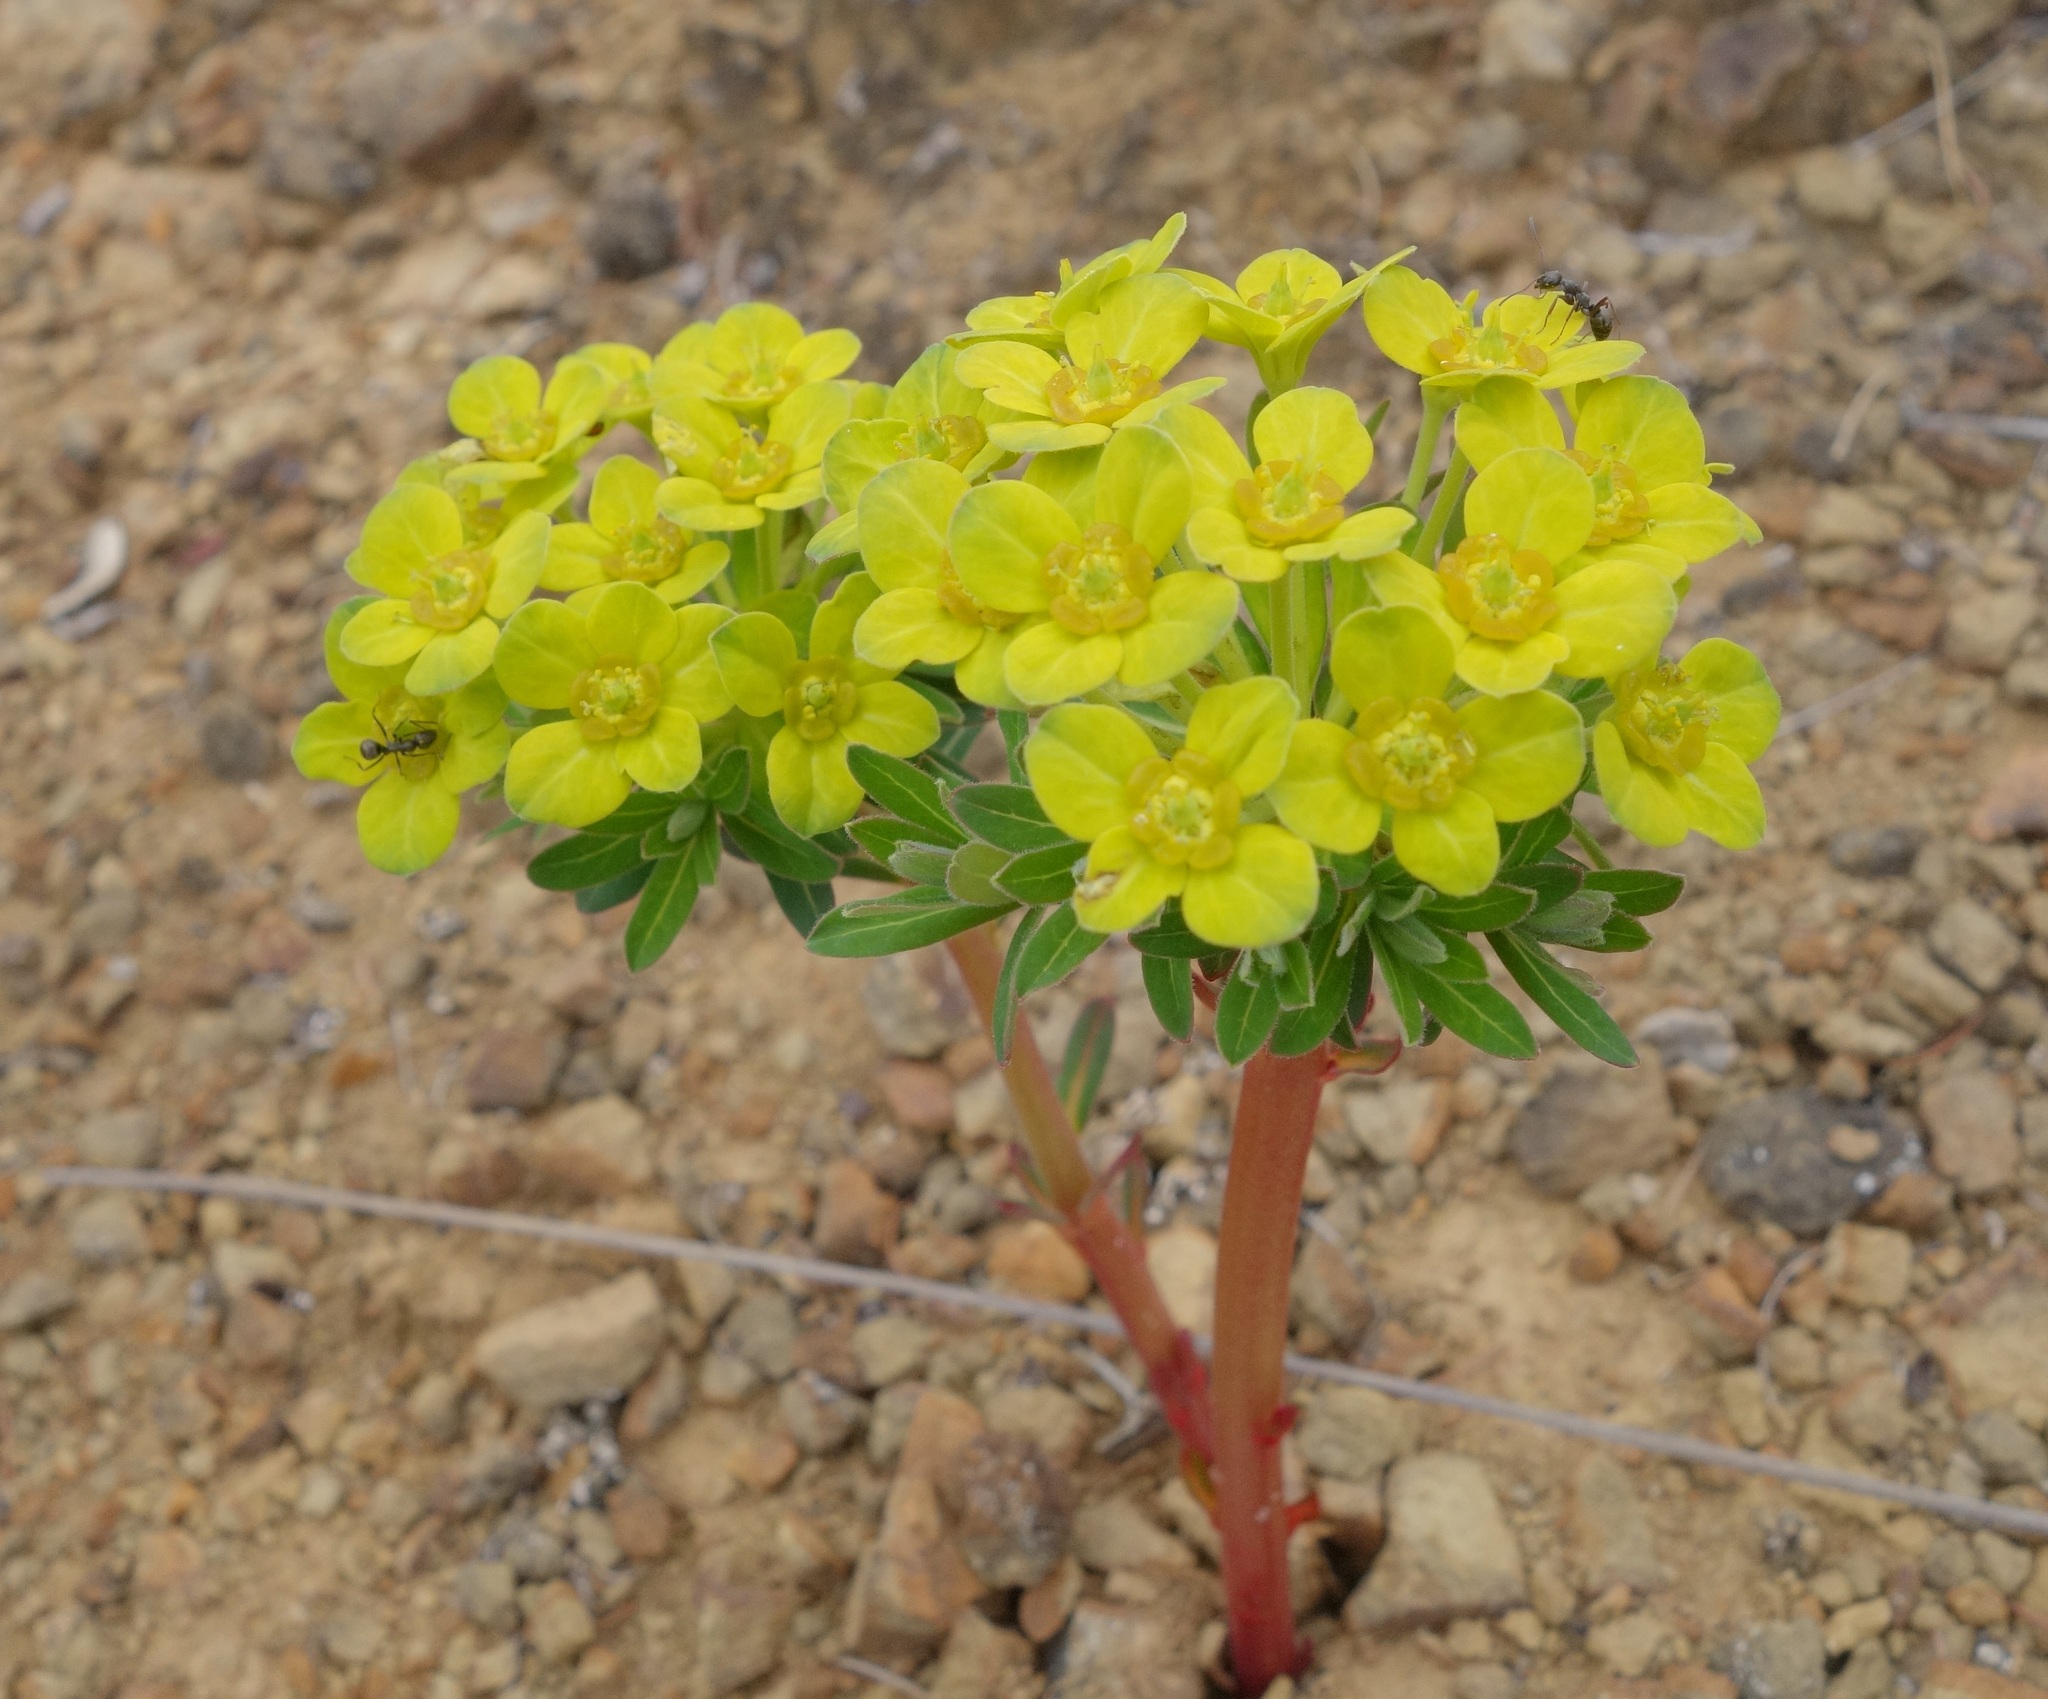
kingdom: Plantae
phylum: Tracheophyta
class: Magnoliopsida
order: Malpighiales
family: Euphorbiaceae
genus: Euphorbia
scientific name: Euphorbia stracheyi
